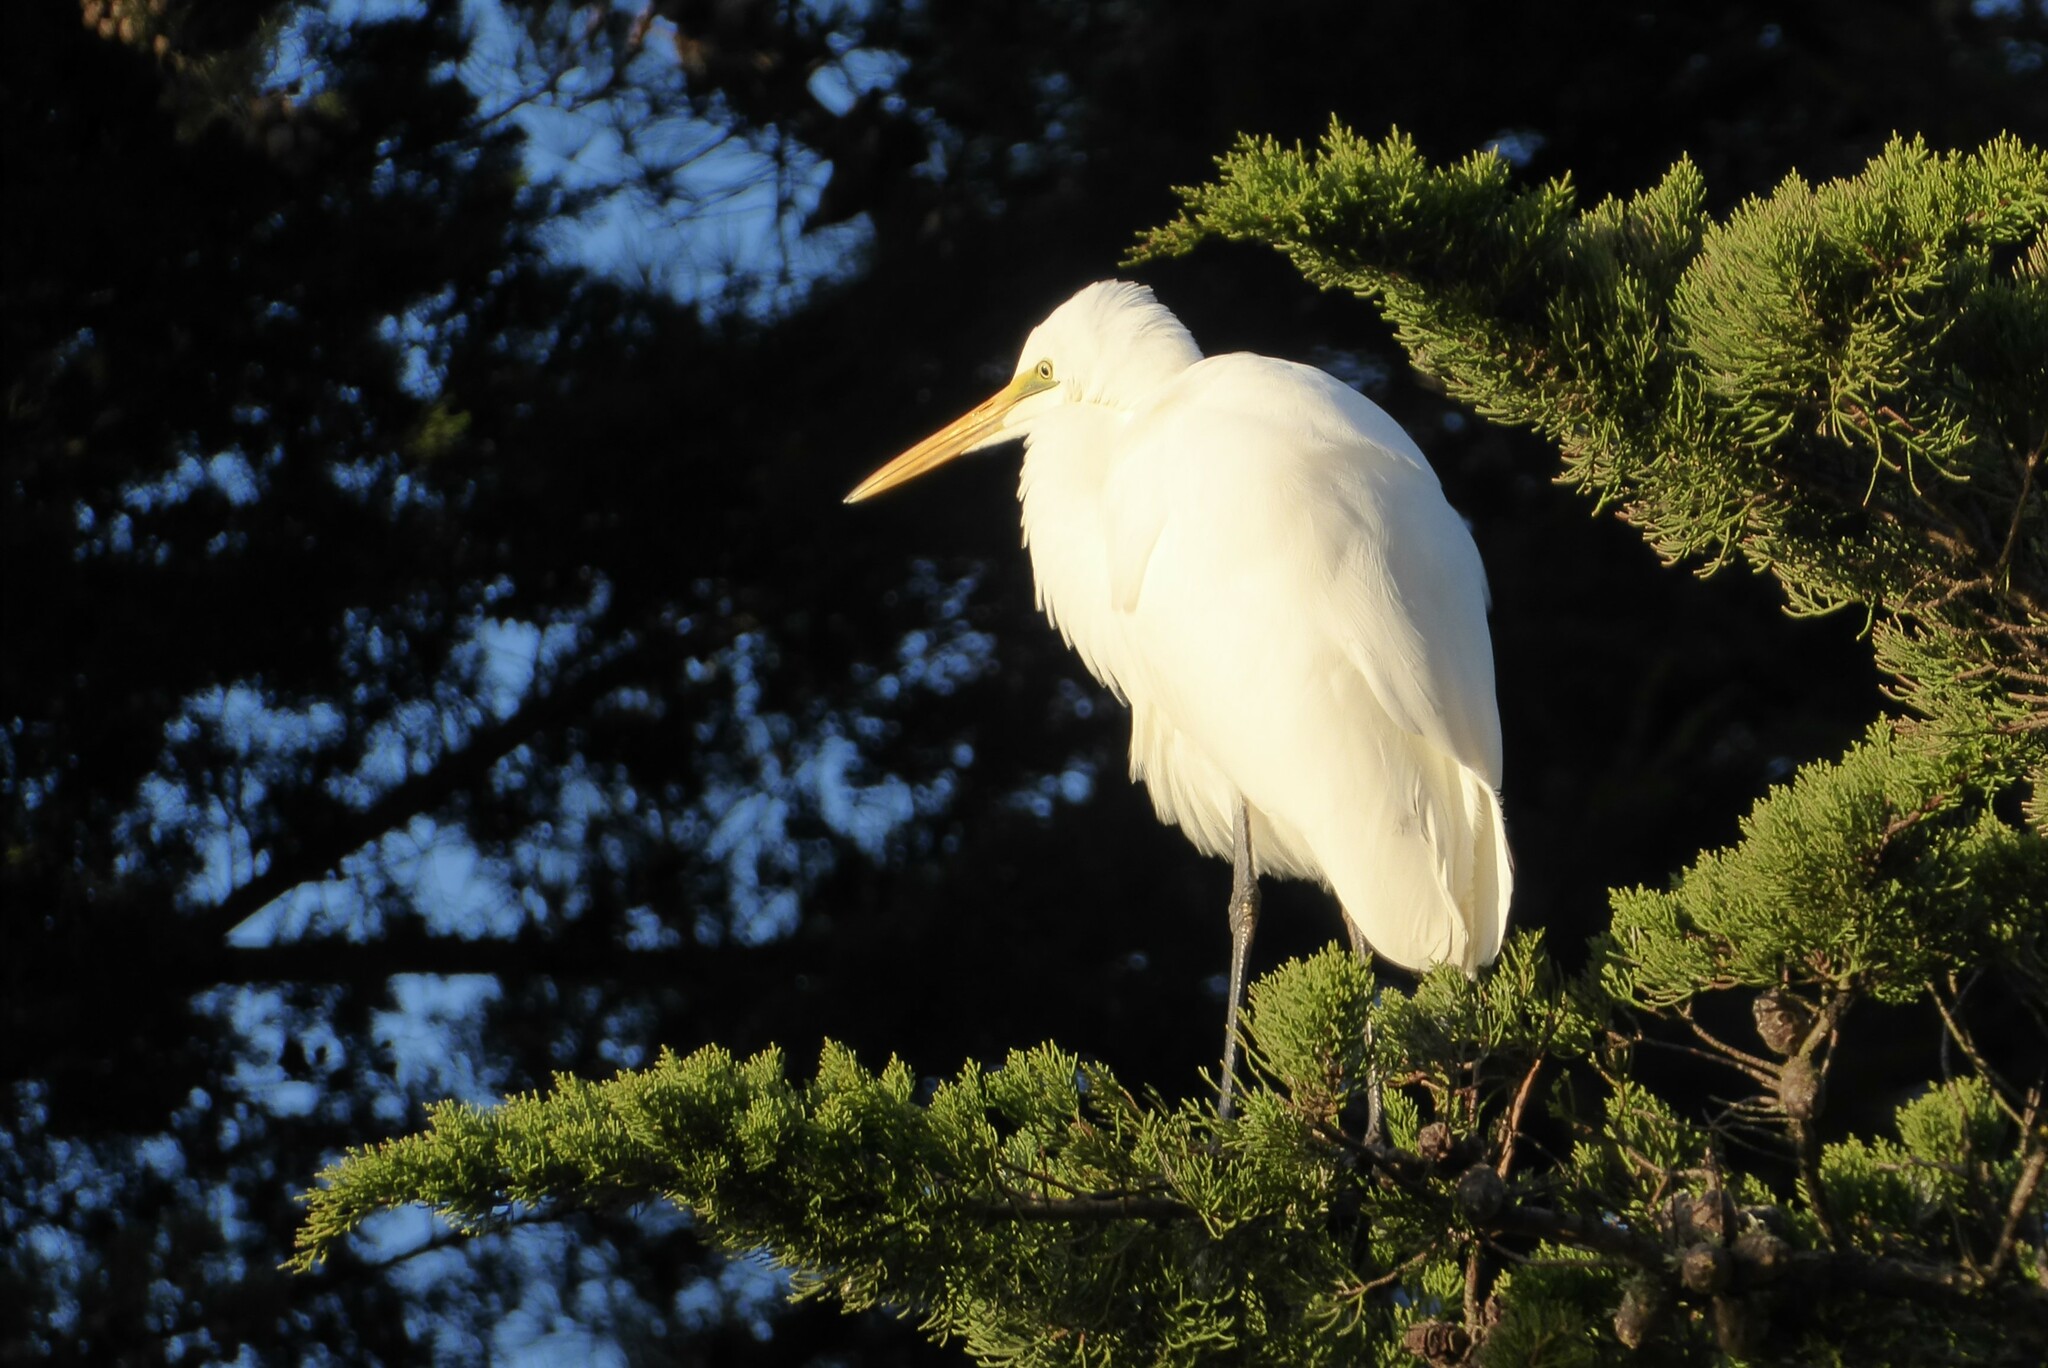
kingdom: Animalia
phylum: Chordata
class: Aves
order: Pelecaniformes
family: Ardeidae
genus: Ardea
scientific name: Ardea modesta
